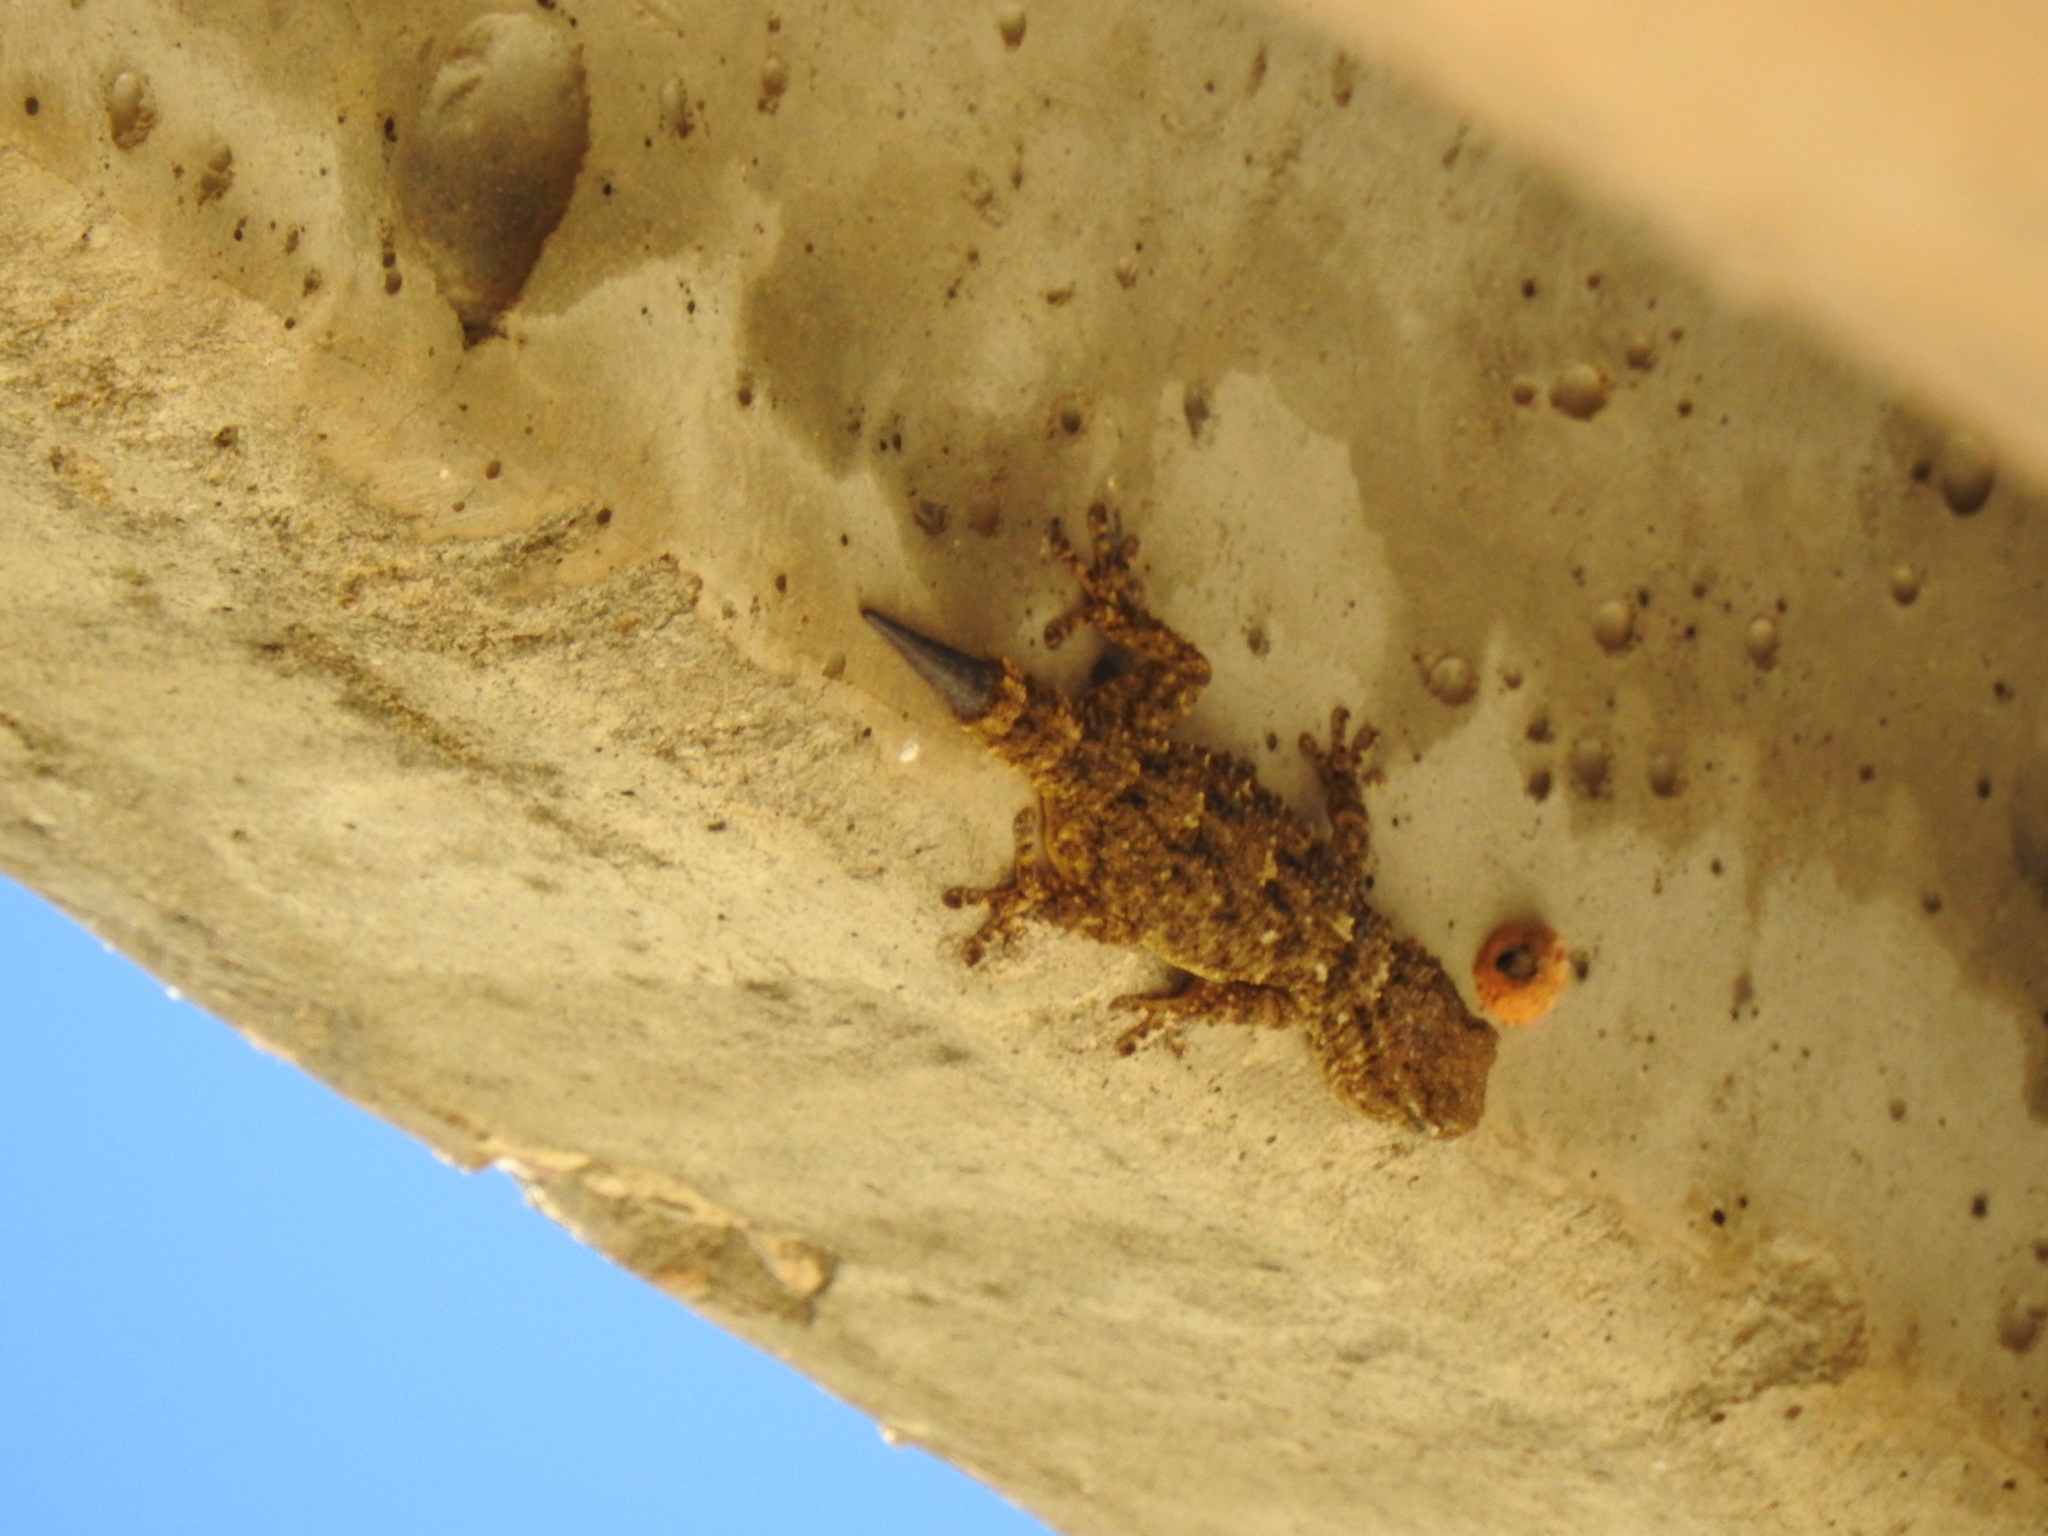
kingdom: Animalia
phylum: Chordata
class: Squamata
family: Phyllodactylidae
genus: Tarentola
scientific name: Tarentola mauritanica
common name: Moorish gecko
